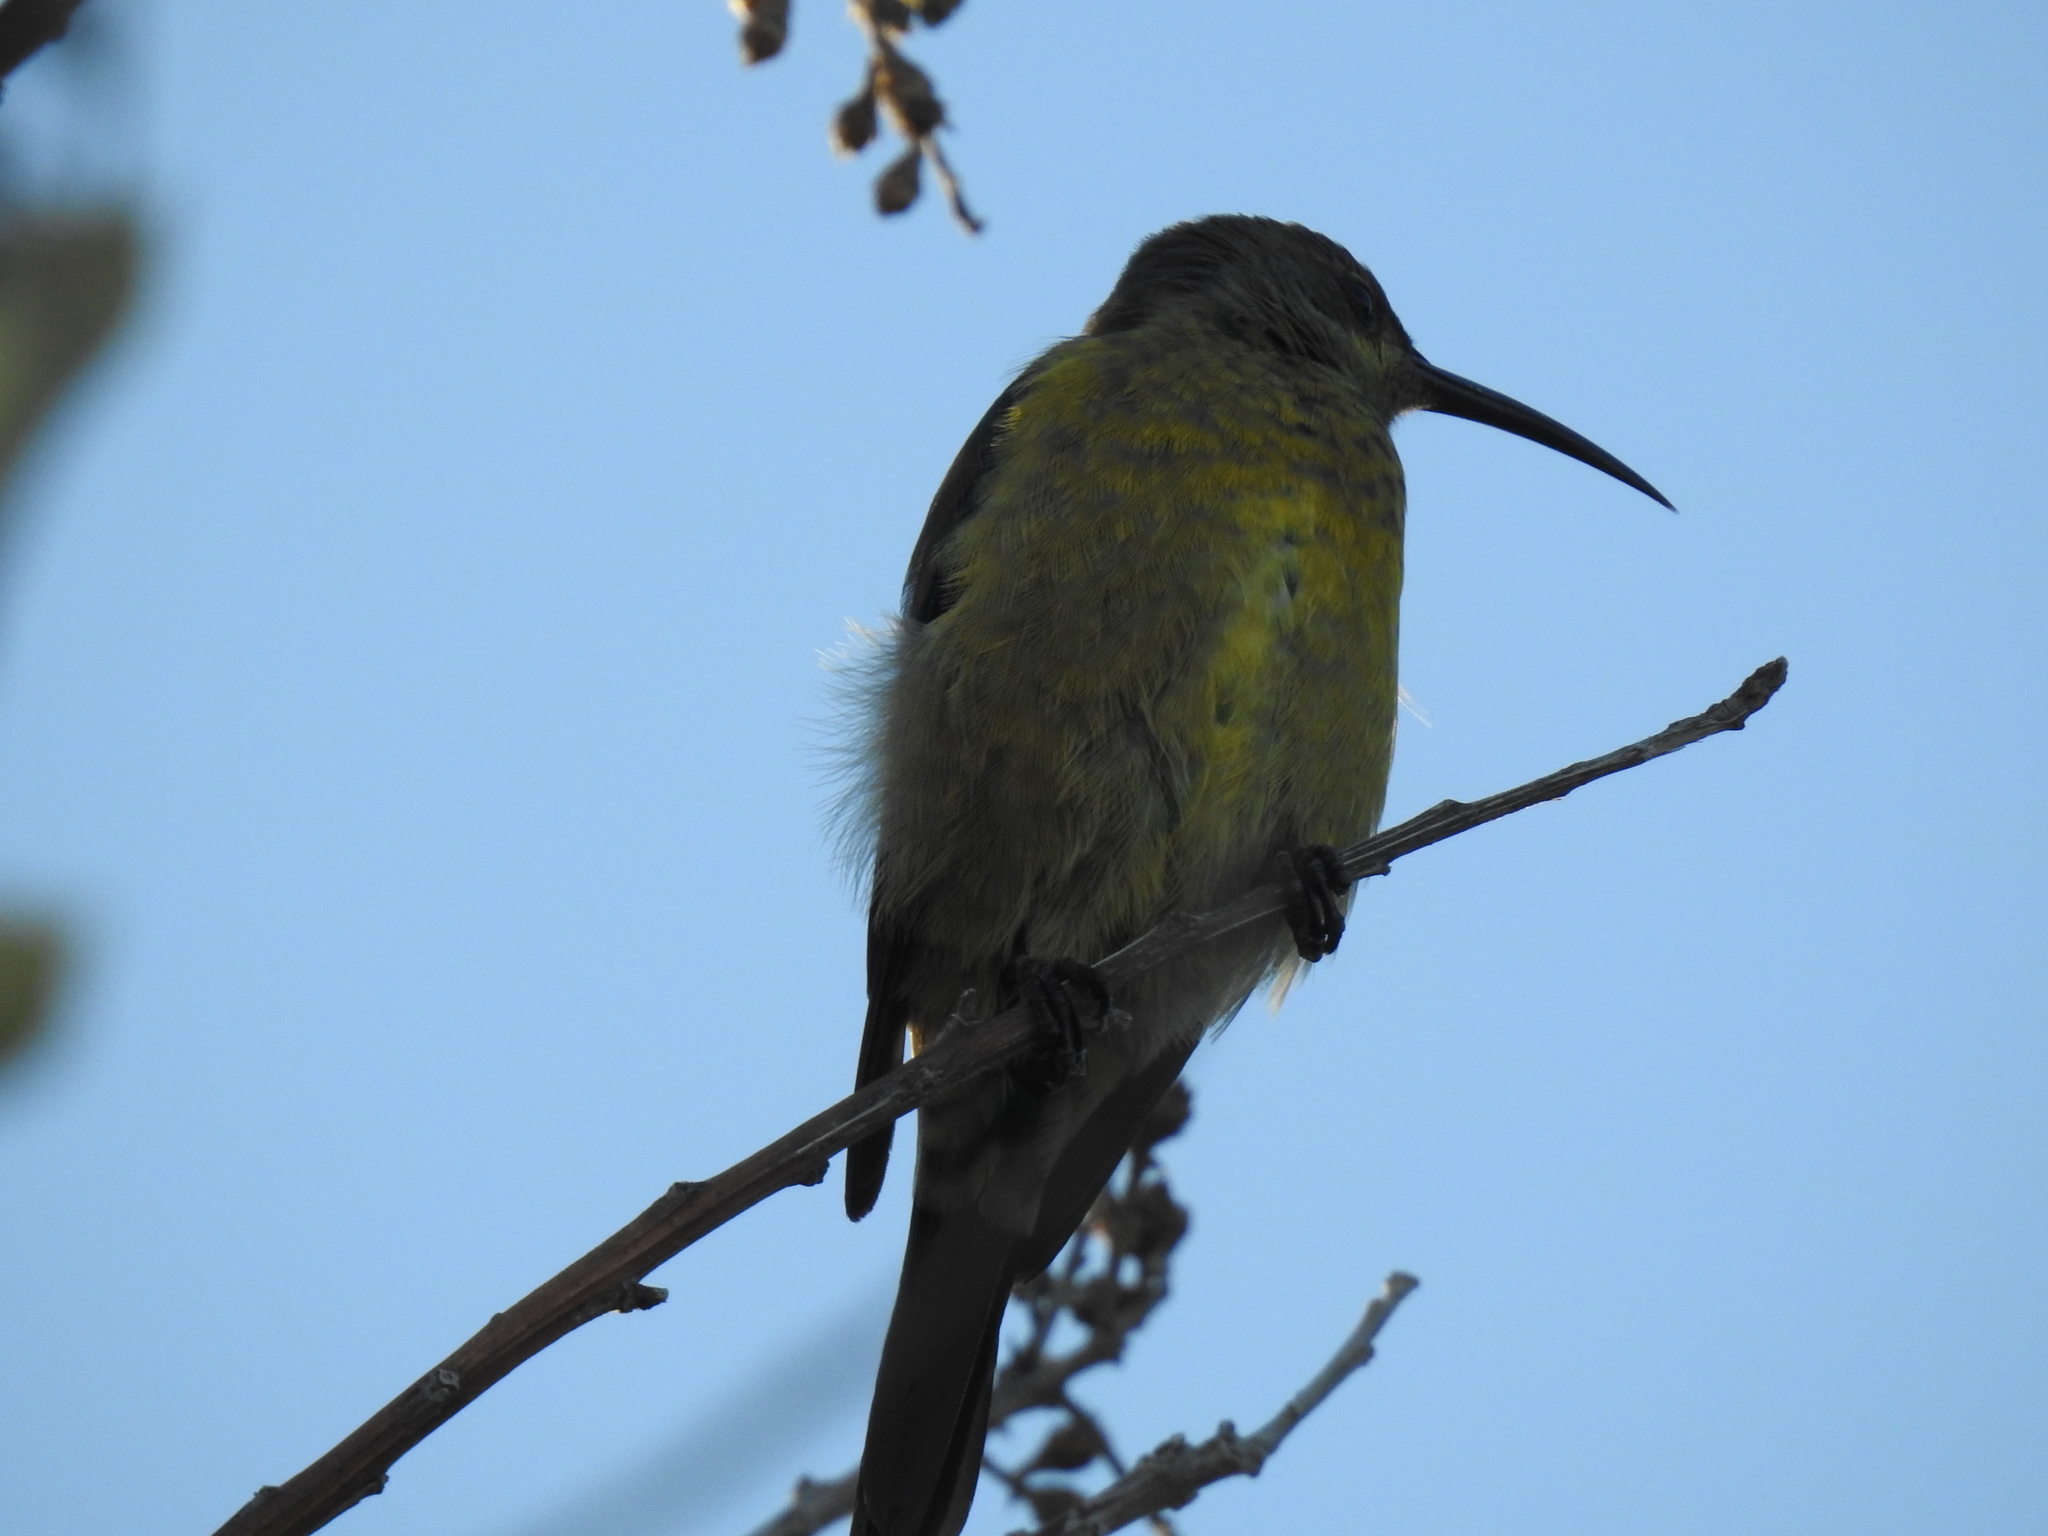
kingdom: Animalia
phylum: Chordata
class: Aves
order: Passeriformes
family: Nectariniidae
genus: Nectarinia
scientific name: Nectarinia famosa
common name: Malachite sunbird
